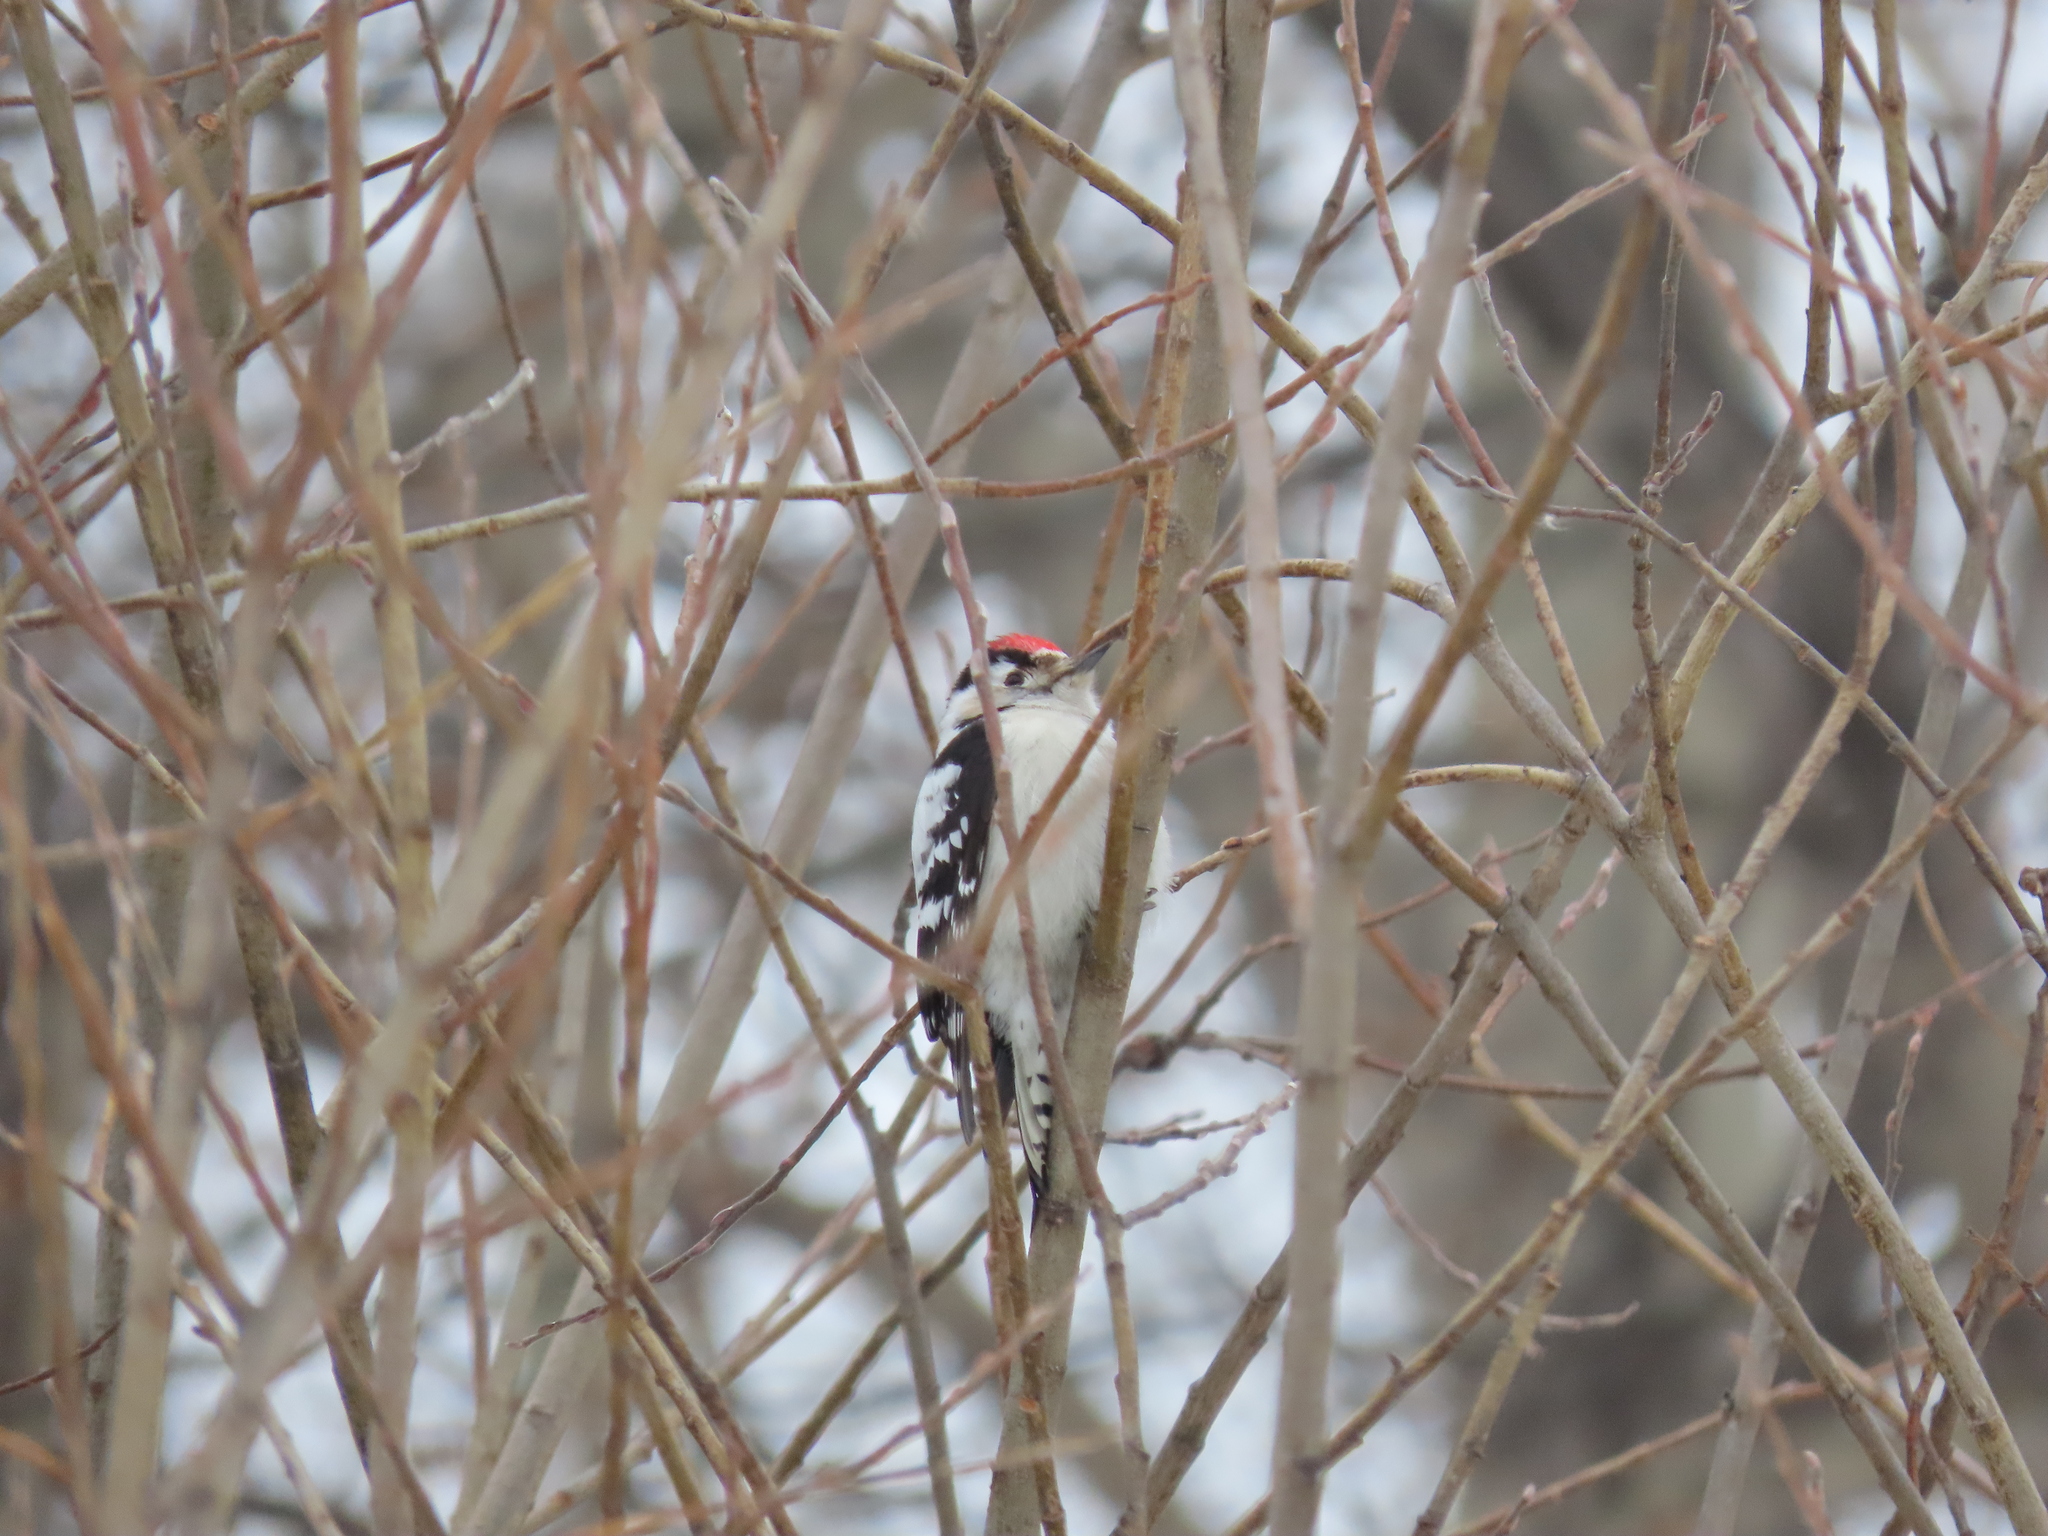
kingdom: Animalia
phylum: Chordata
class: Aves
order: Piciformes
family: Picidae
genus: Dryobates
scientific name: Dryobates minor
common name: Lesser spotted woodpecker
